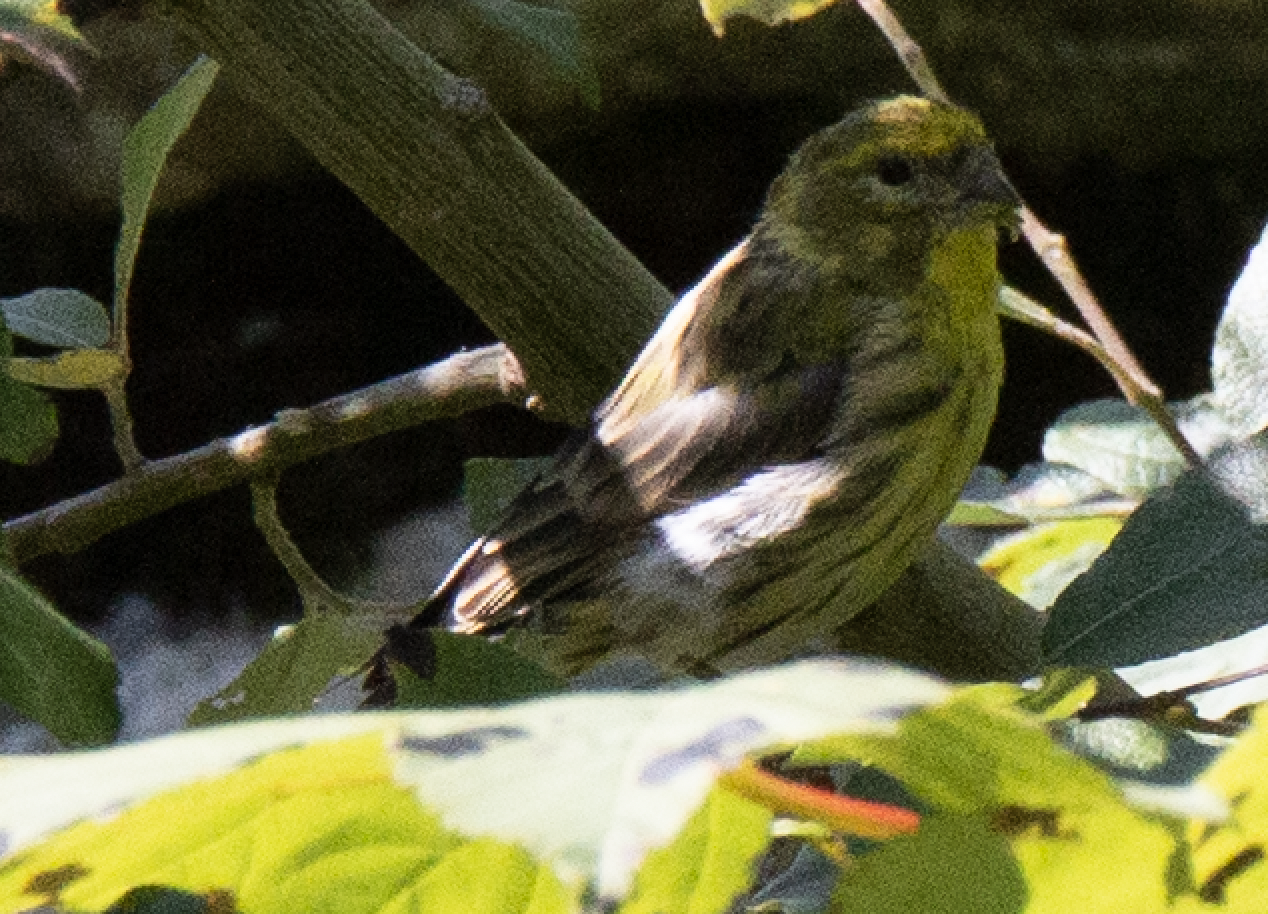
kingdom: Animalia
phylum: Chordata
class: Aves
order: Passeriformes
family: Fringillidae
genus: Serinus
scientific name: Serinus serinus
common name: European serin
